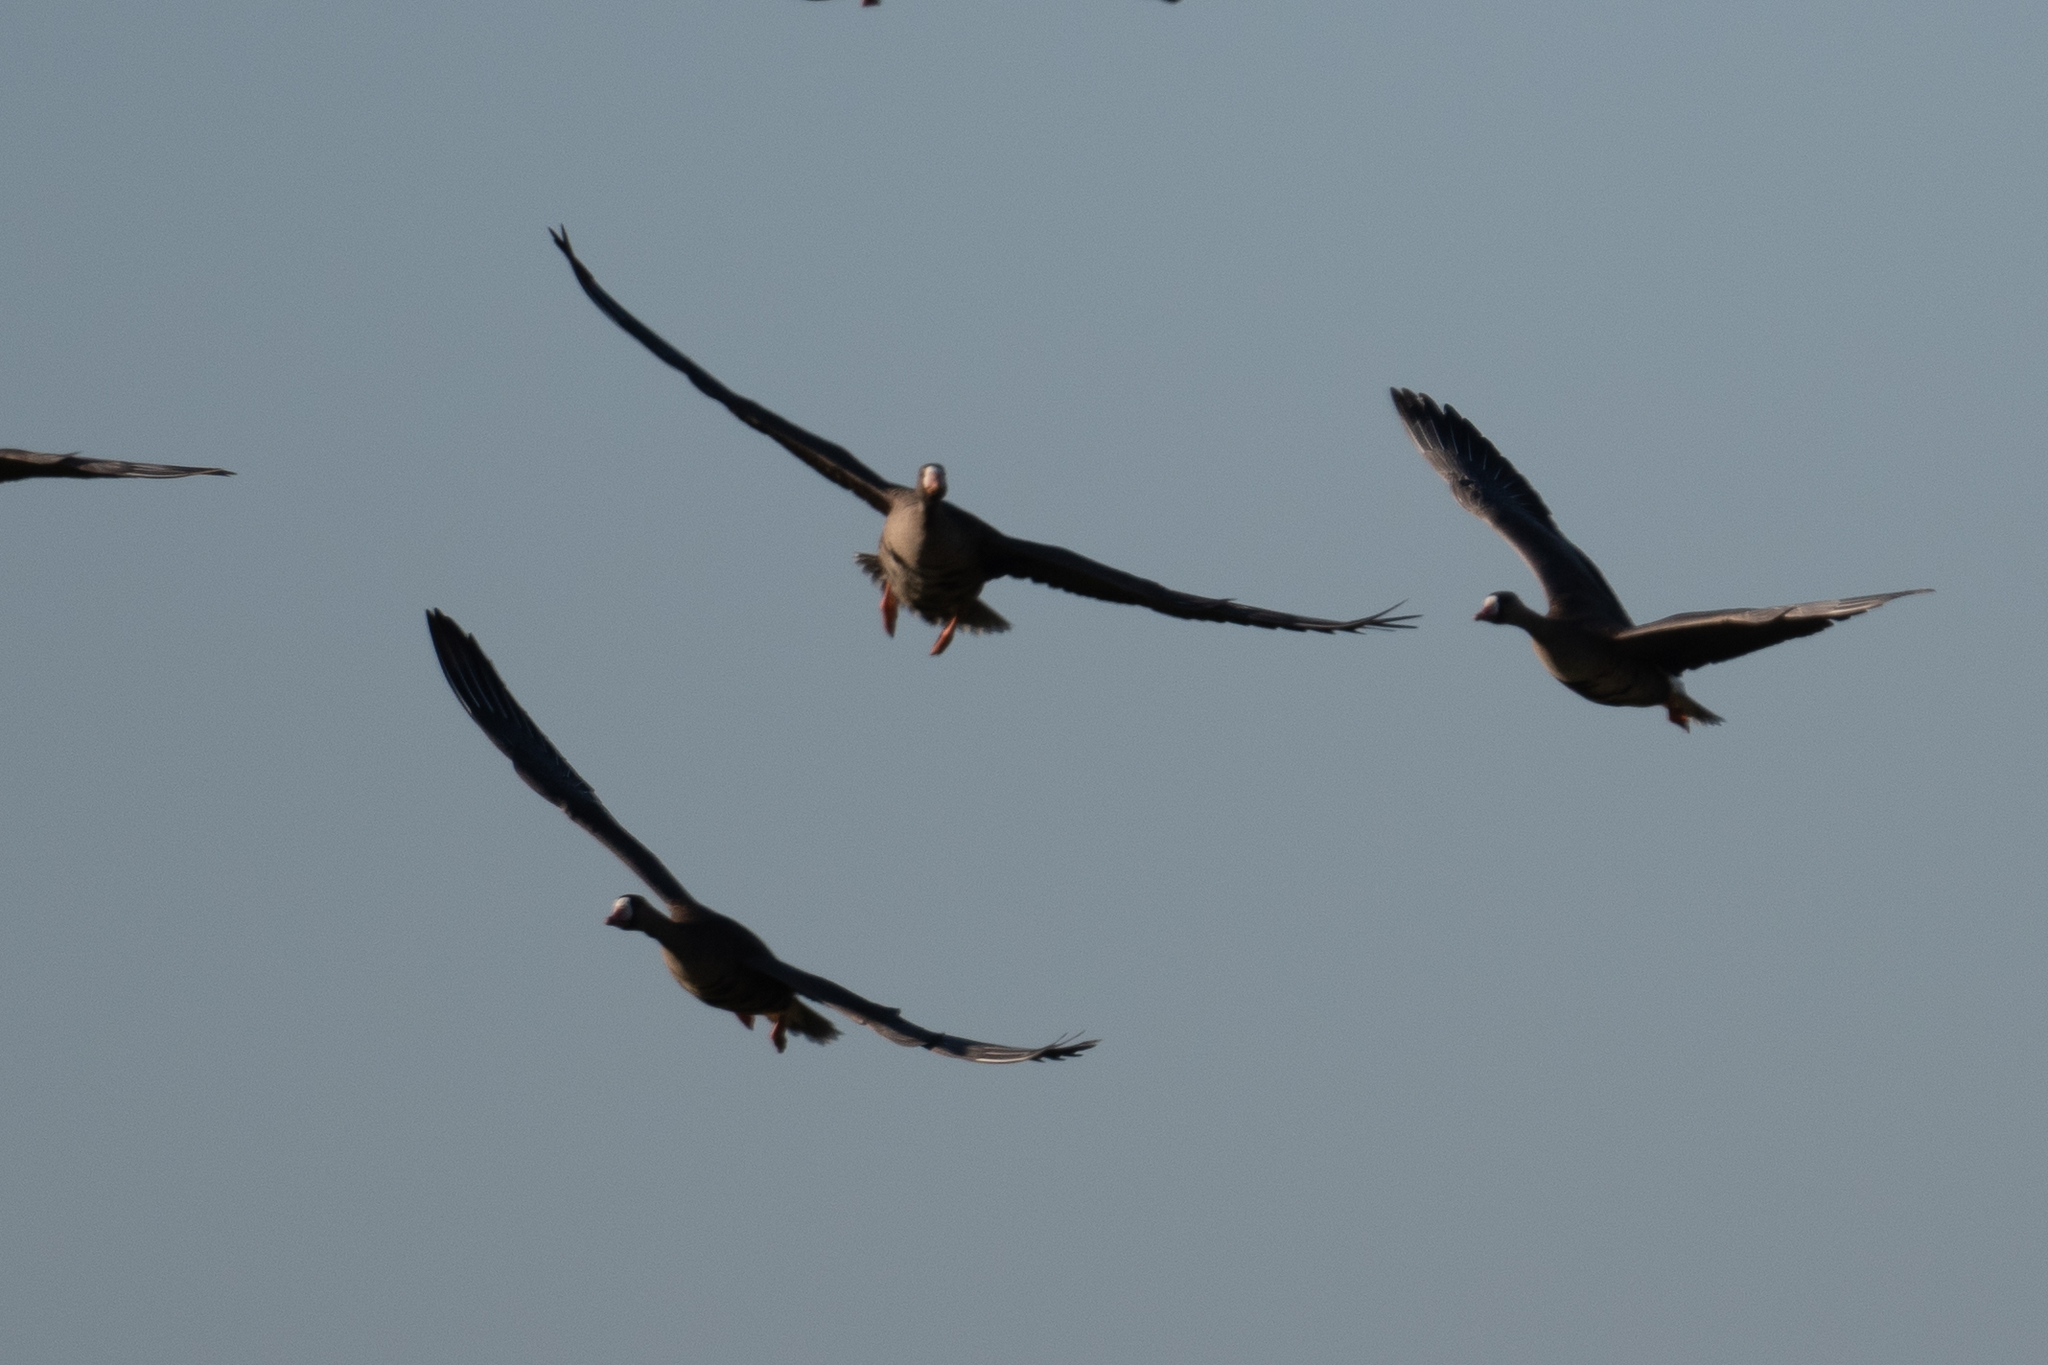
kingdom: Animalia
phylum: Chordata
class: Aves
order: Anseriformes
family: Anatidae
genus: Anser
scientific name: Anser albifrons
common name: Greater white-fronted goose
